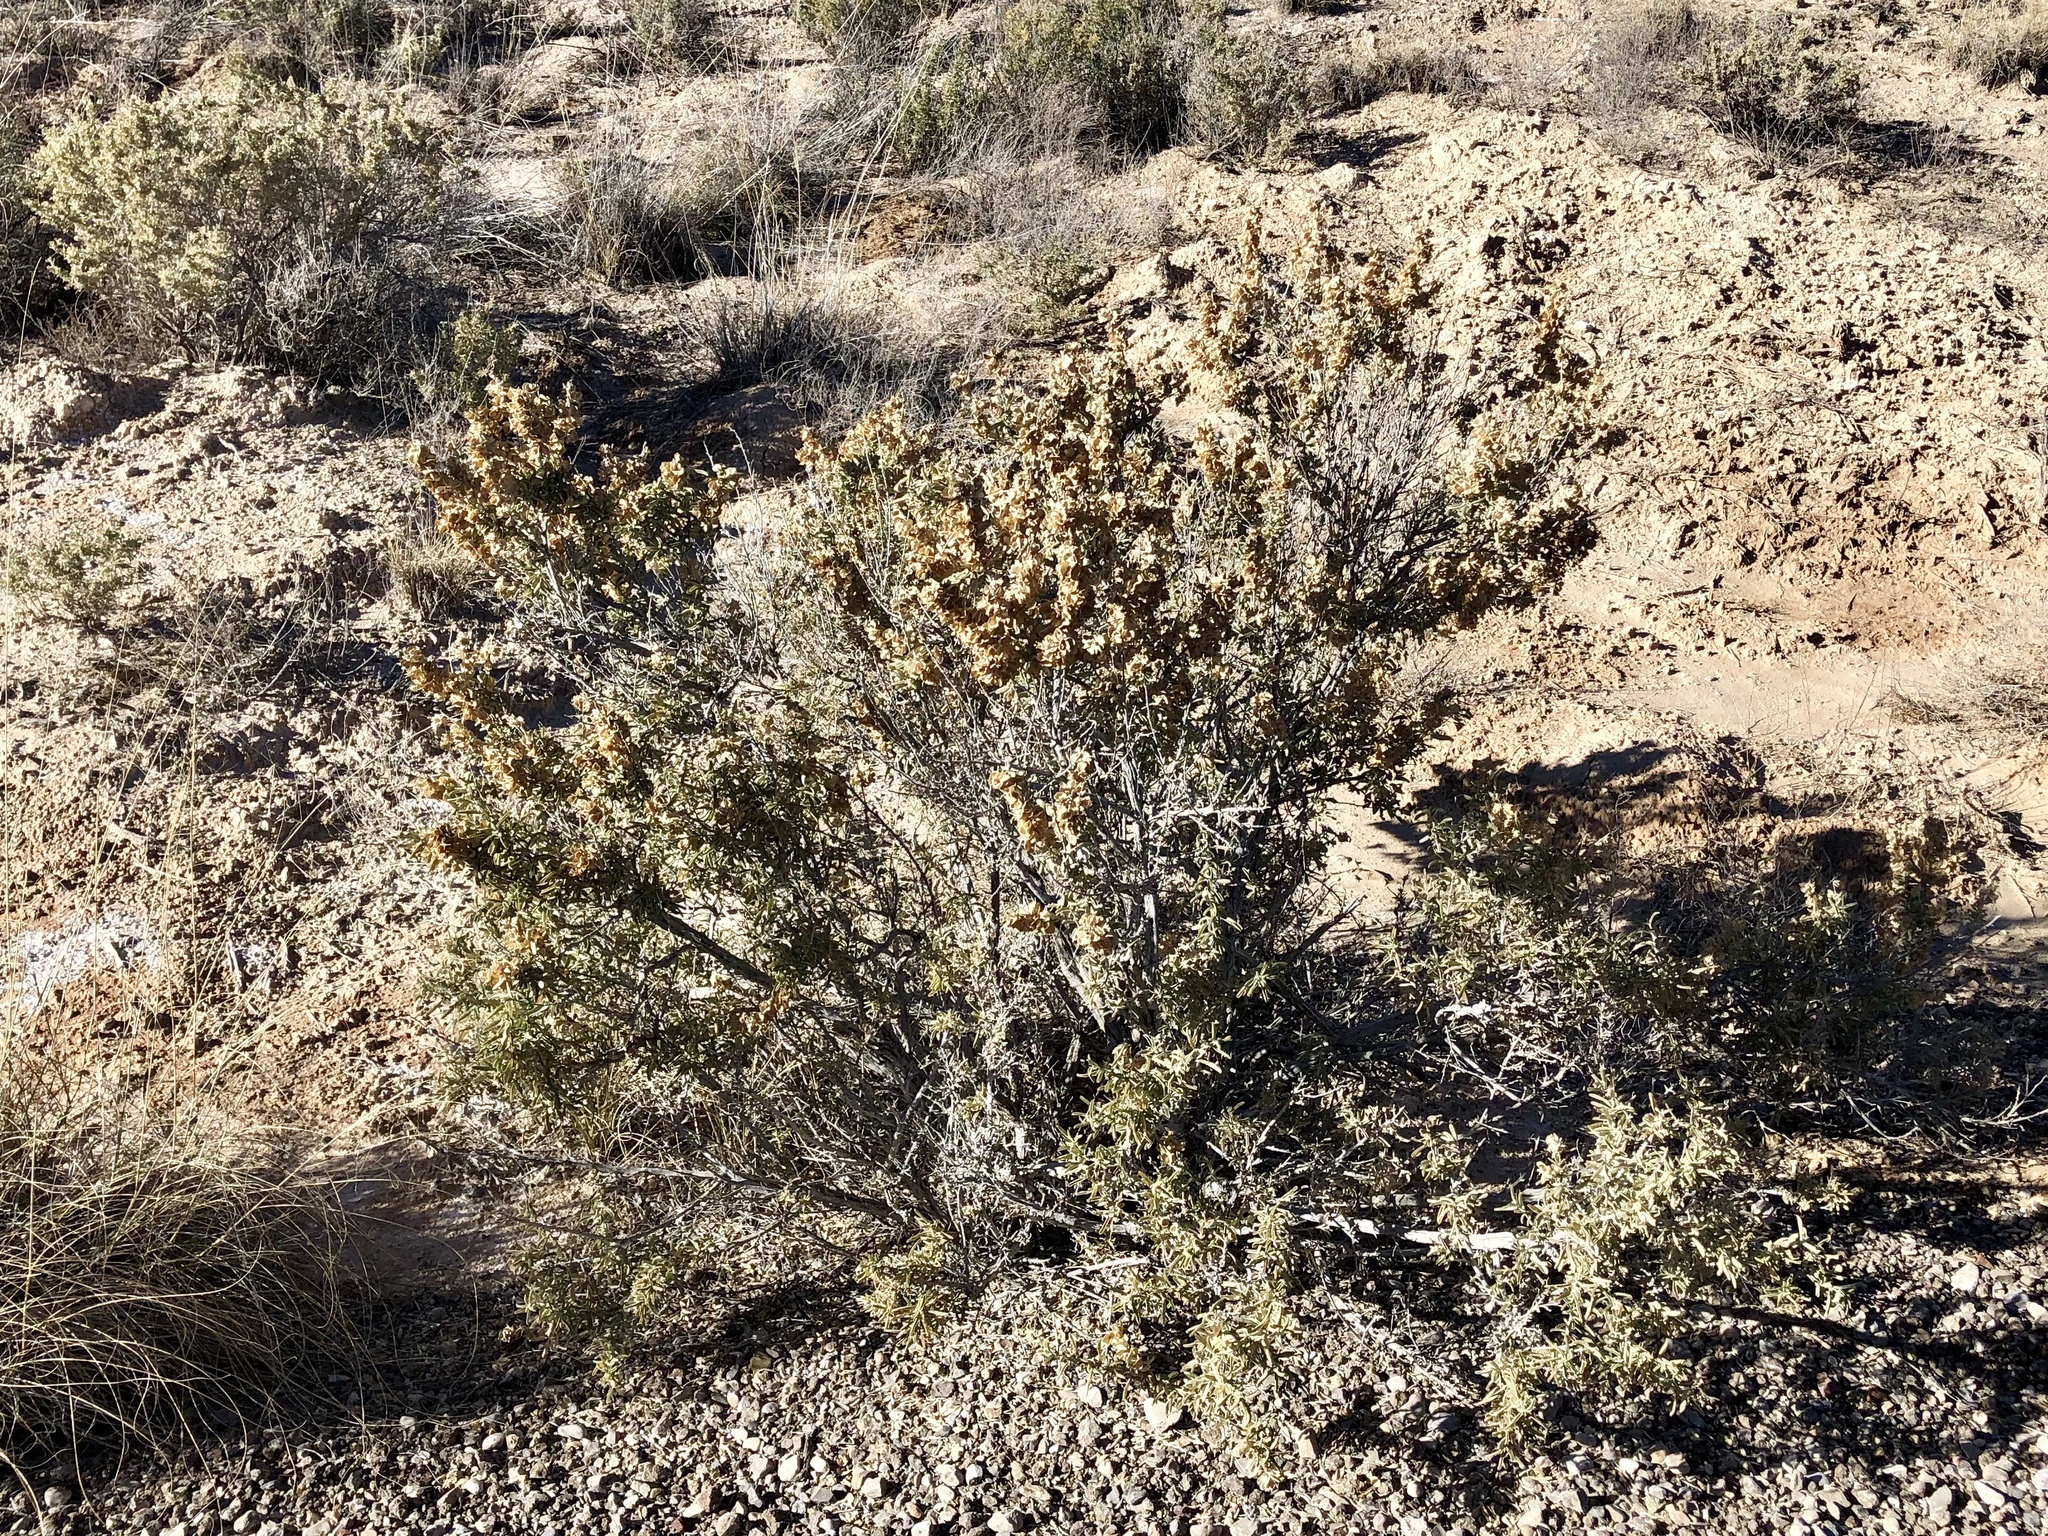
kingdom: Plantae
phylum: Tracheophyta
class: Magnoliopsida
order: Caryophyllales
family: Amaranthaceae
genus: Atriplex
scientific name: Atriplex canescens
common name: Four-wing saltbush
